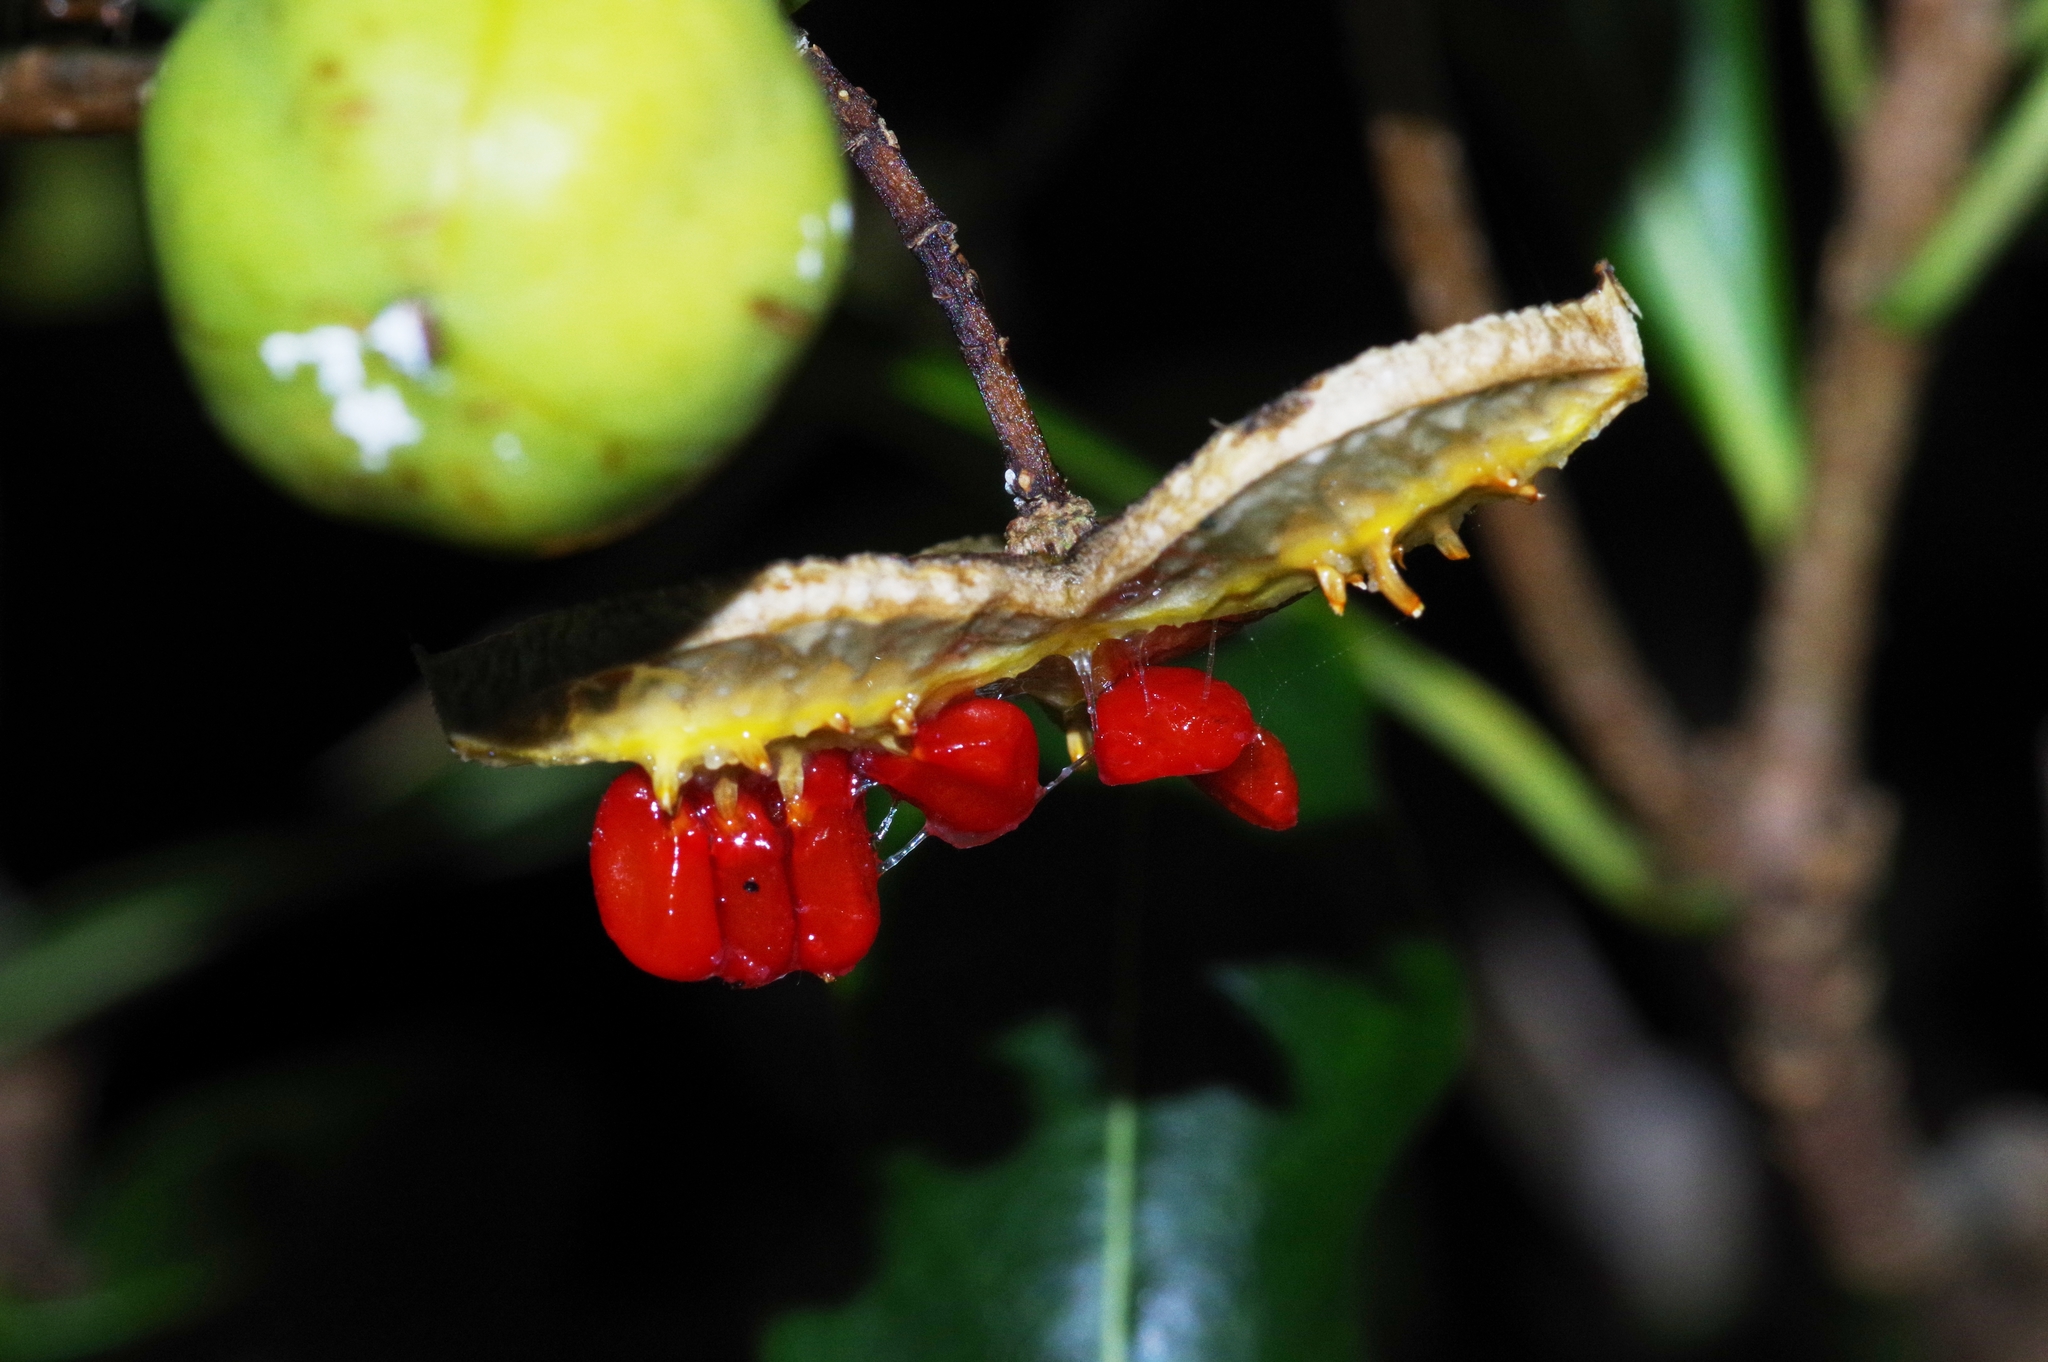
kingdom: Plantae
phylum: Tracheophyta
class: Magnoliopsida
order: Apiales
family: Pittosporaceae
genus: Pittosporum
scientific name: Pittosporum tobira
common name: Japanese cheesewood
